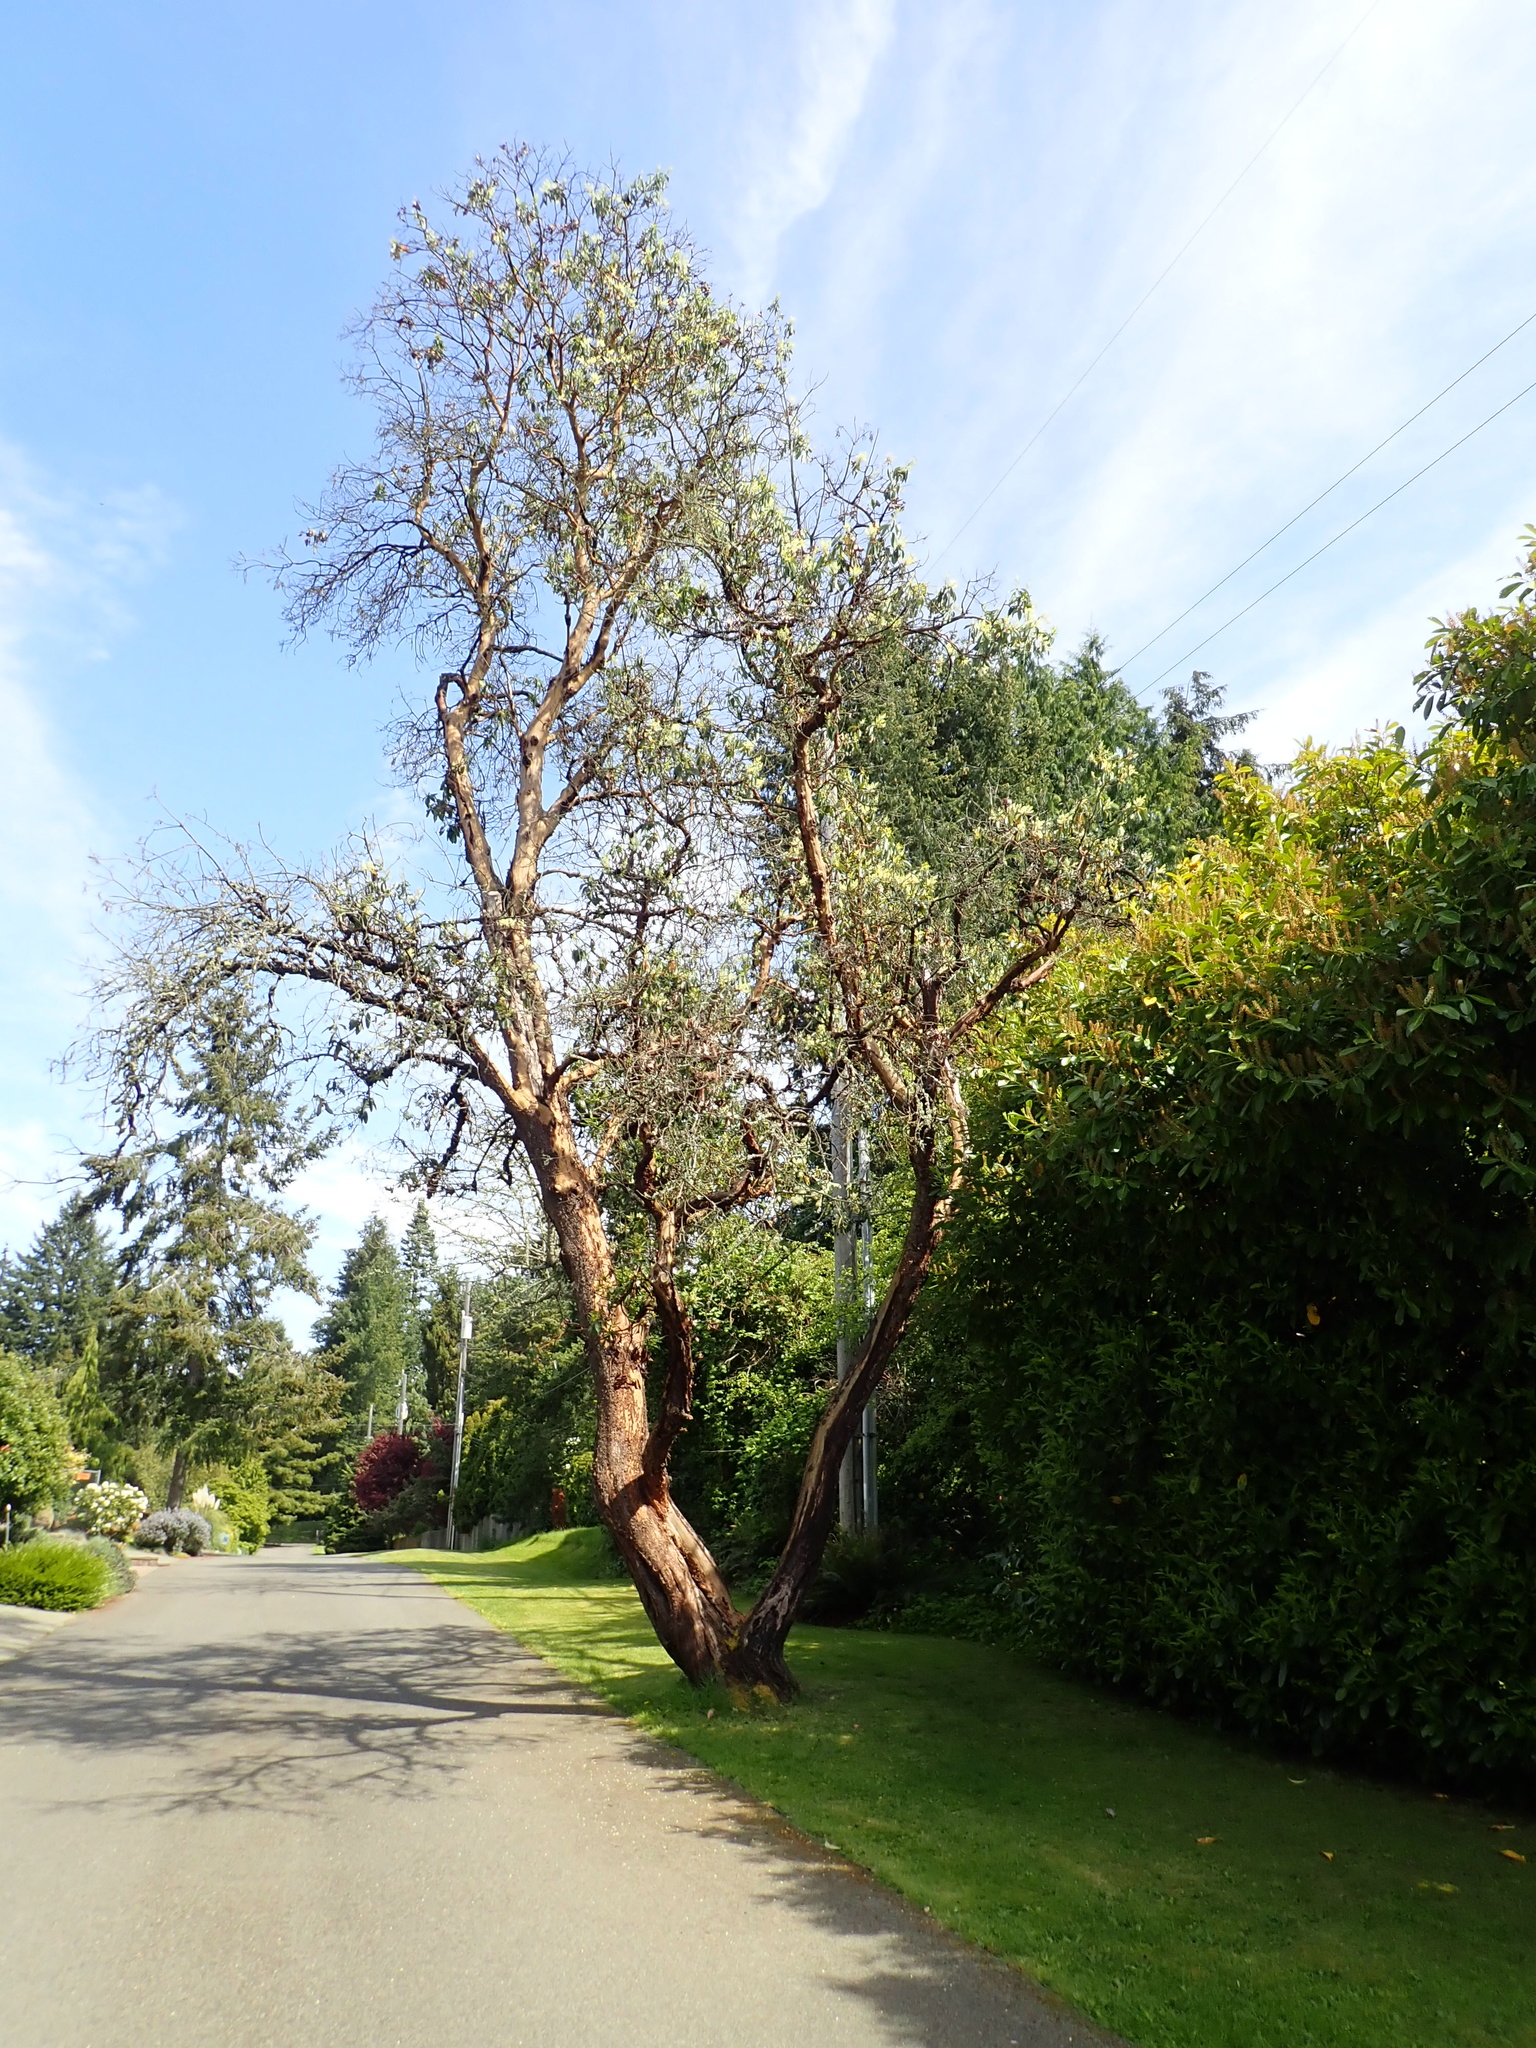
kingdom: Plantae
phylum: Tracheophyta
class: Magnoliopsida
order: Ericales
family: Ericaceae
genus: Arbutus
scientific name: Arbutus menziesii
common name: Pacific madrone
